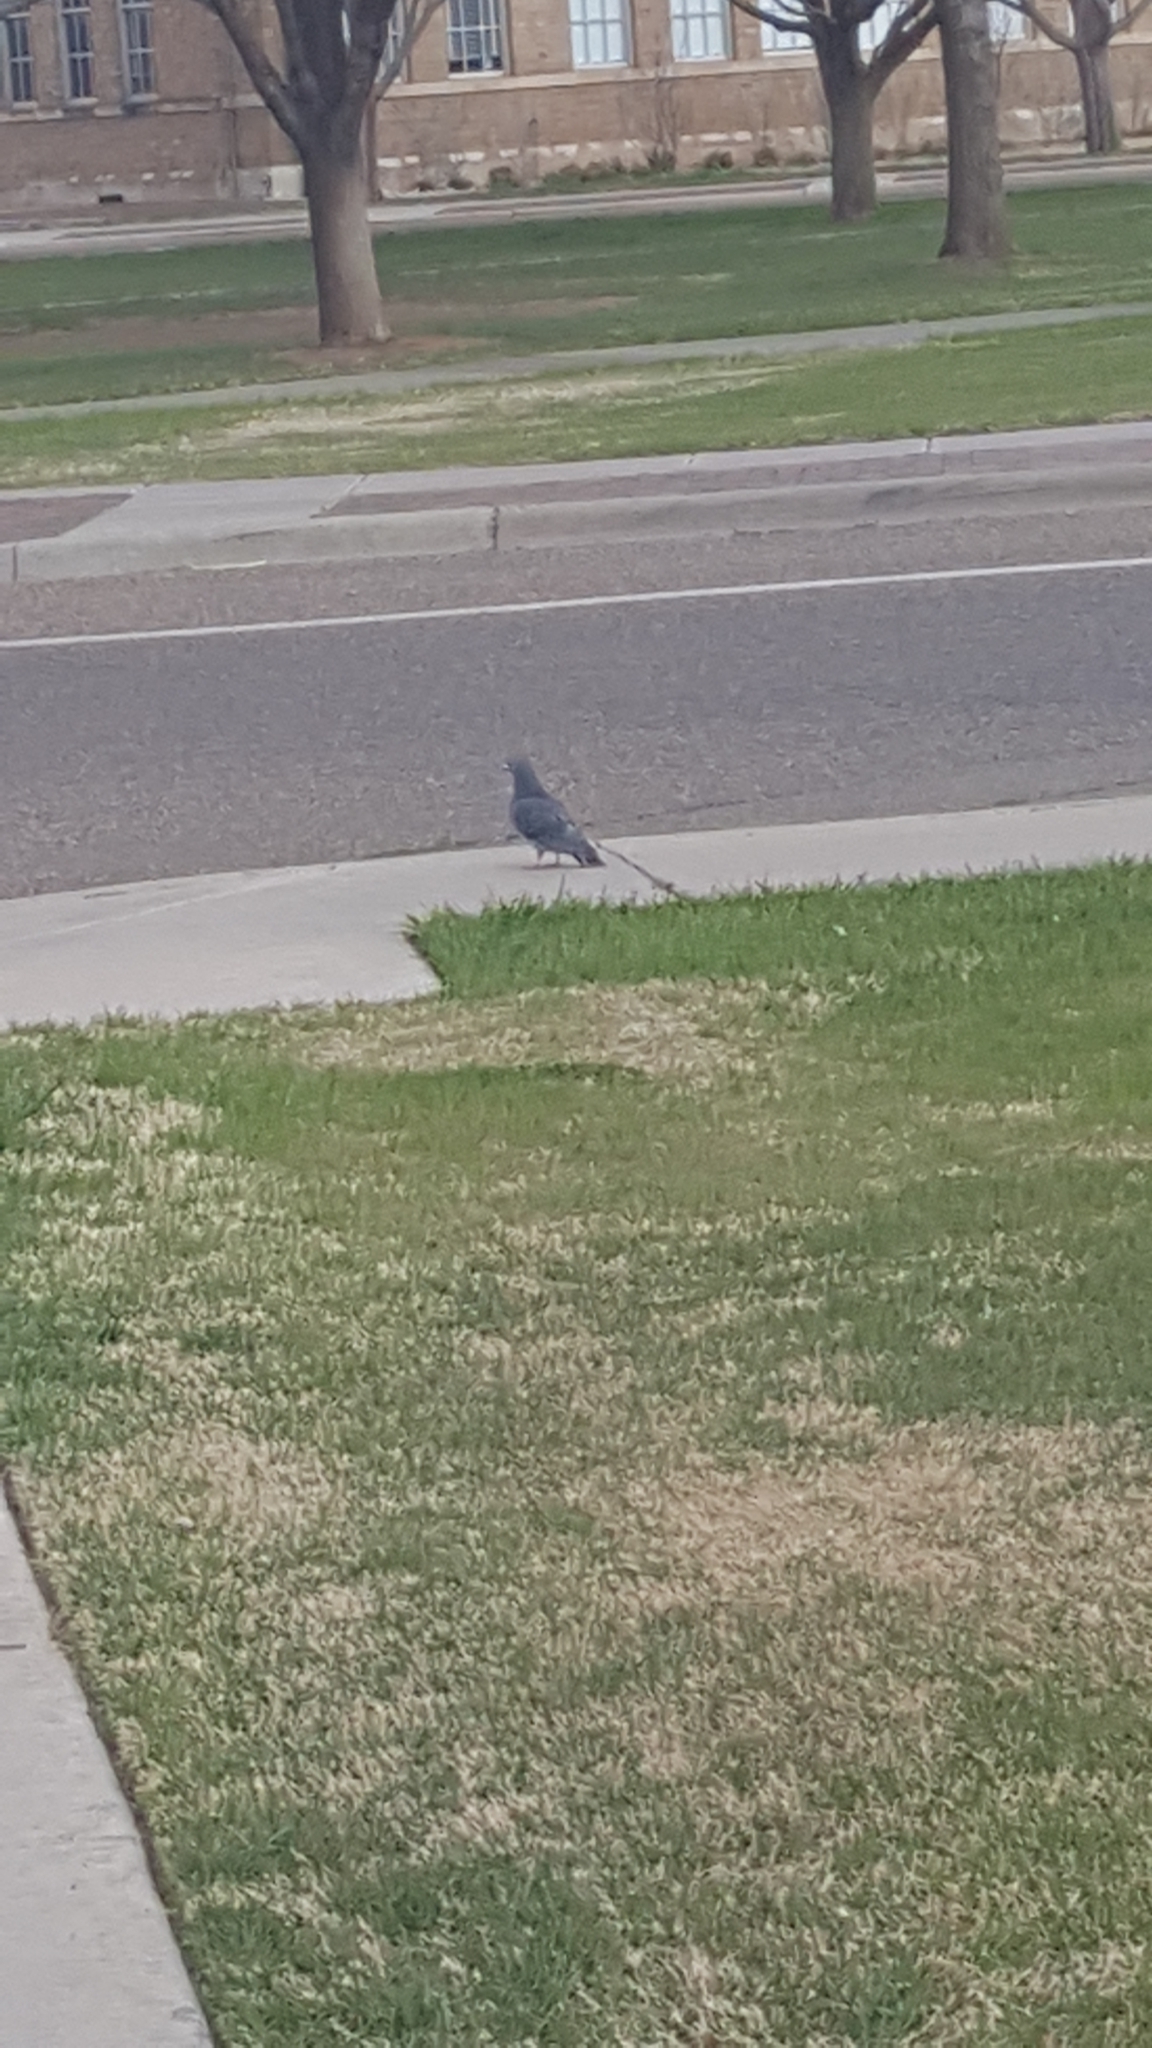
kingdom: Animalia
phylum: Chordata
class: Aves
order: Columbiformes
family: Columbidae
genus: Columba
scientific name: Columba livia
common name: Rock pigeon
